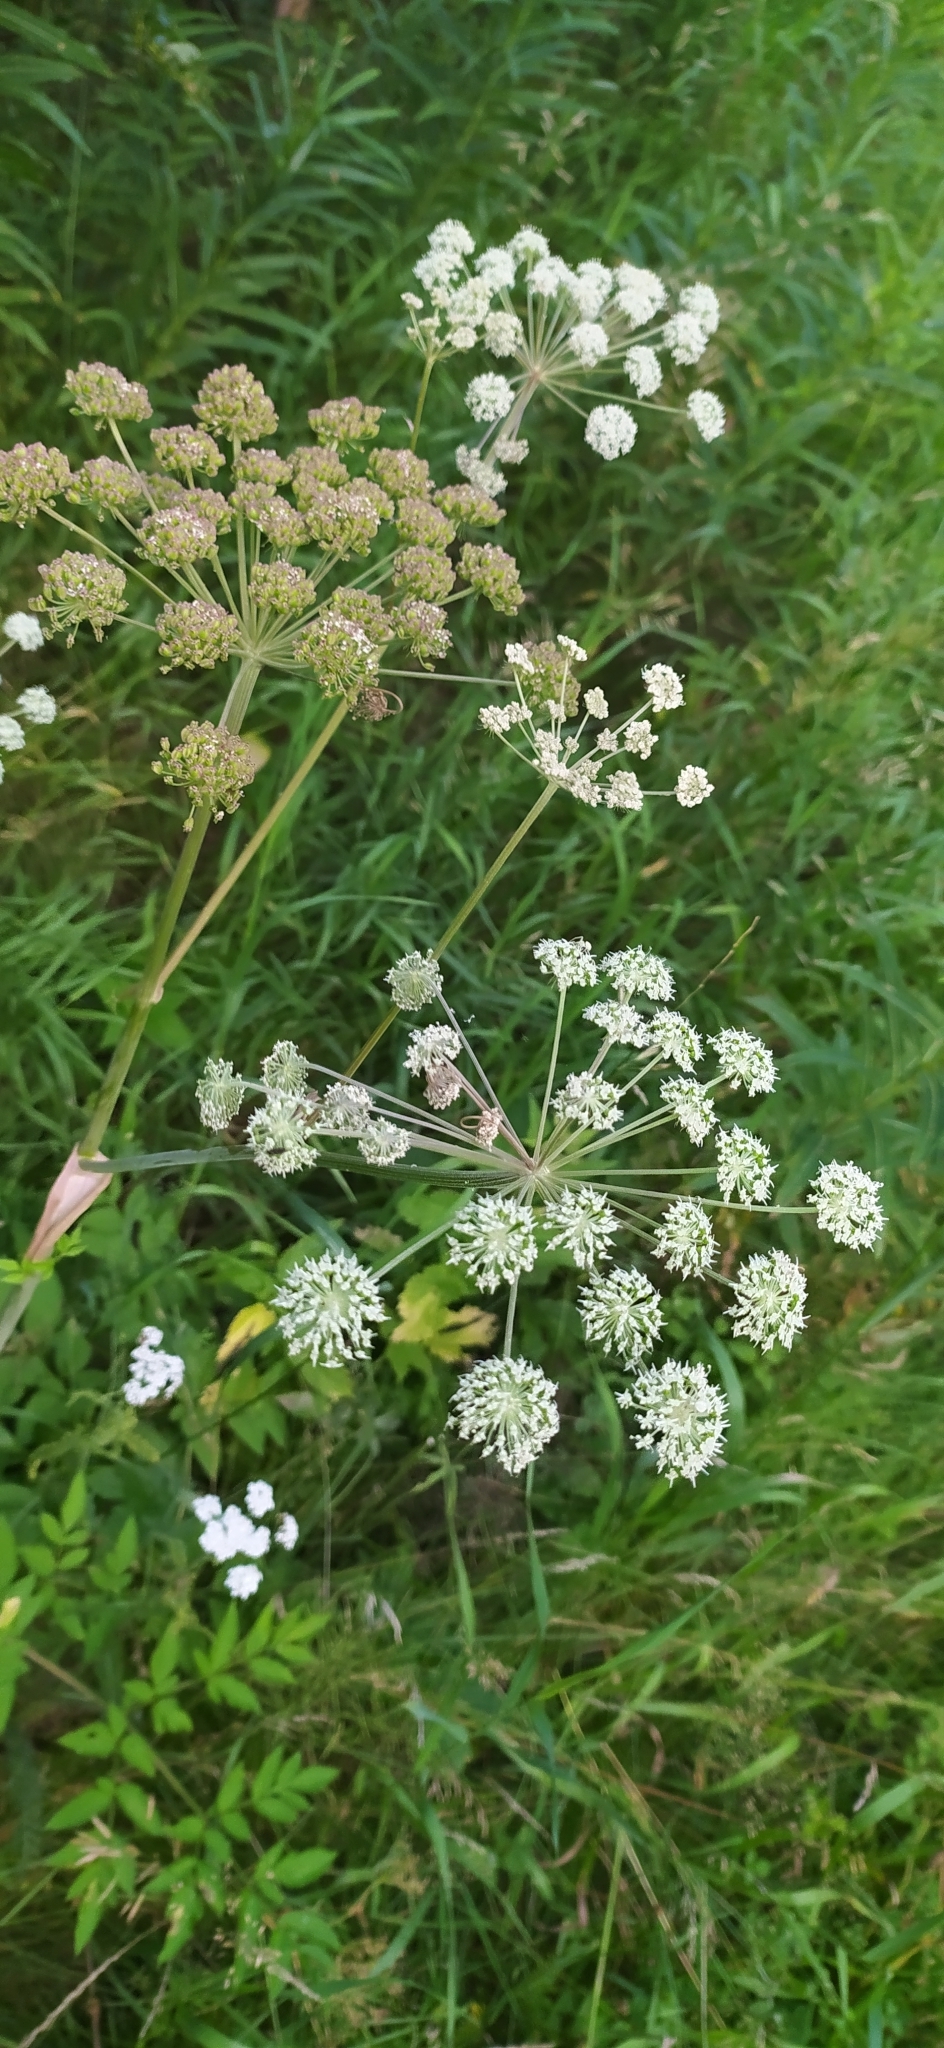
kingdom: Plantae
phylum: Tracheophyta
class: Magnoliopsida
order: Apiales
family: Apiaceae
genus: Angelica
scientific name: Angelica sylvestris
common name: Wild angelica
